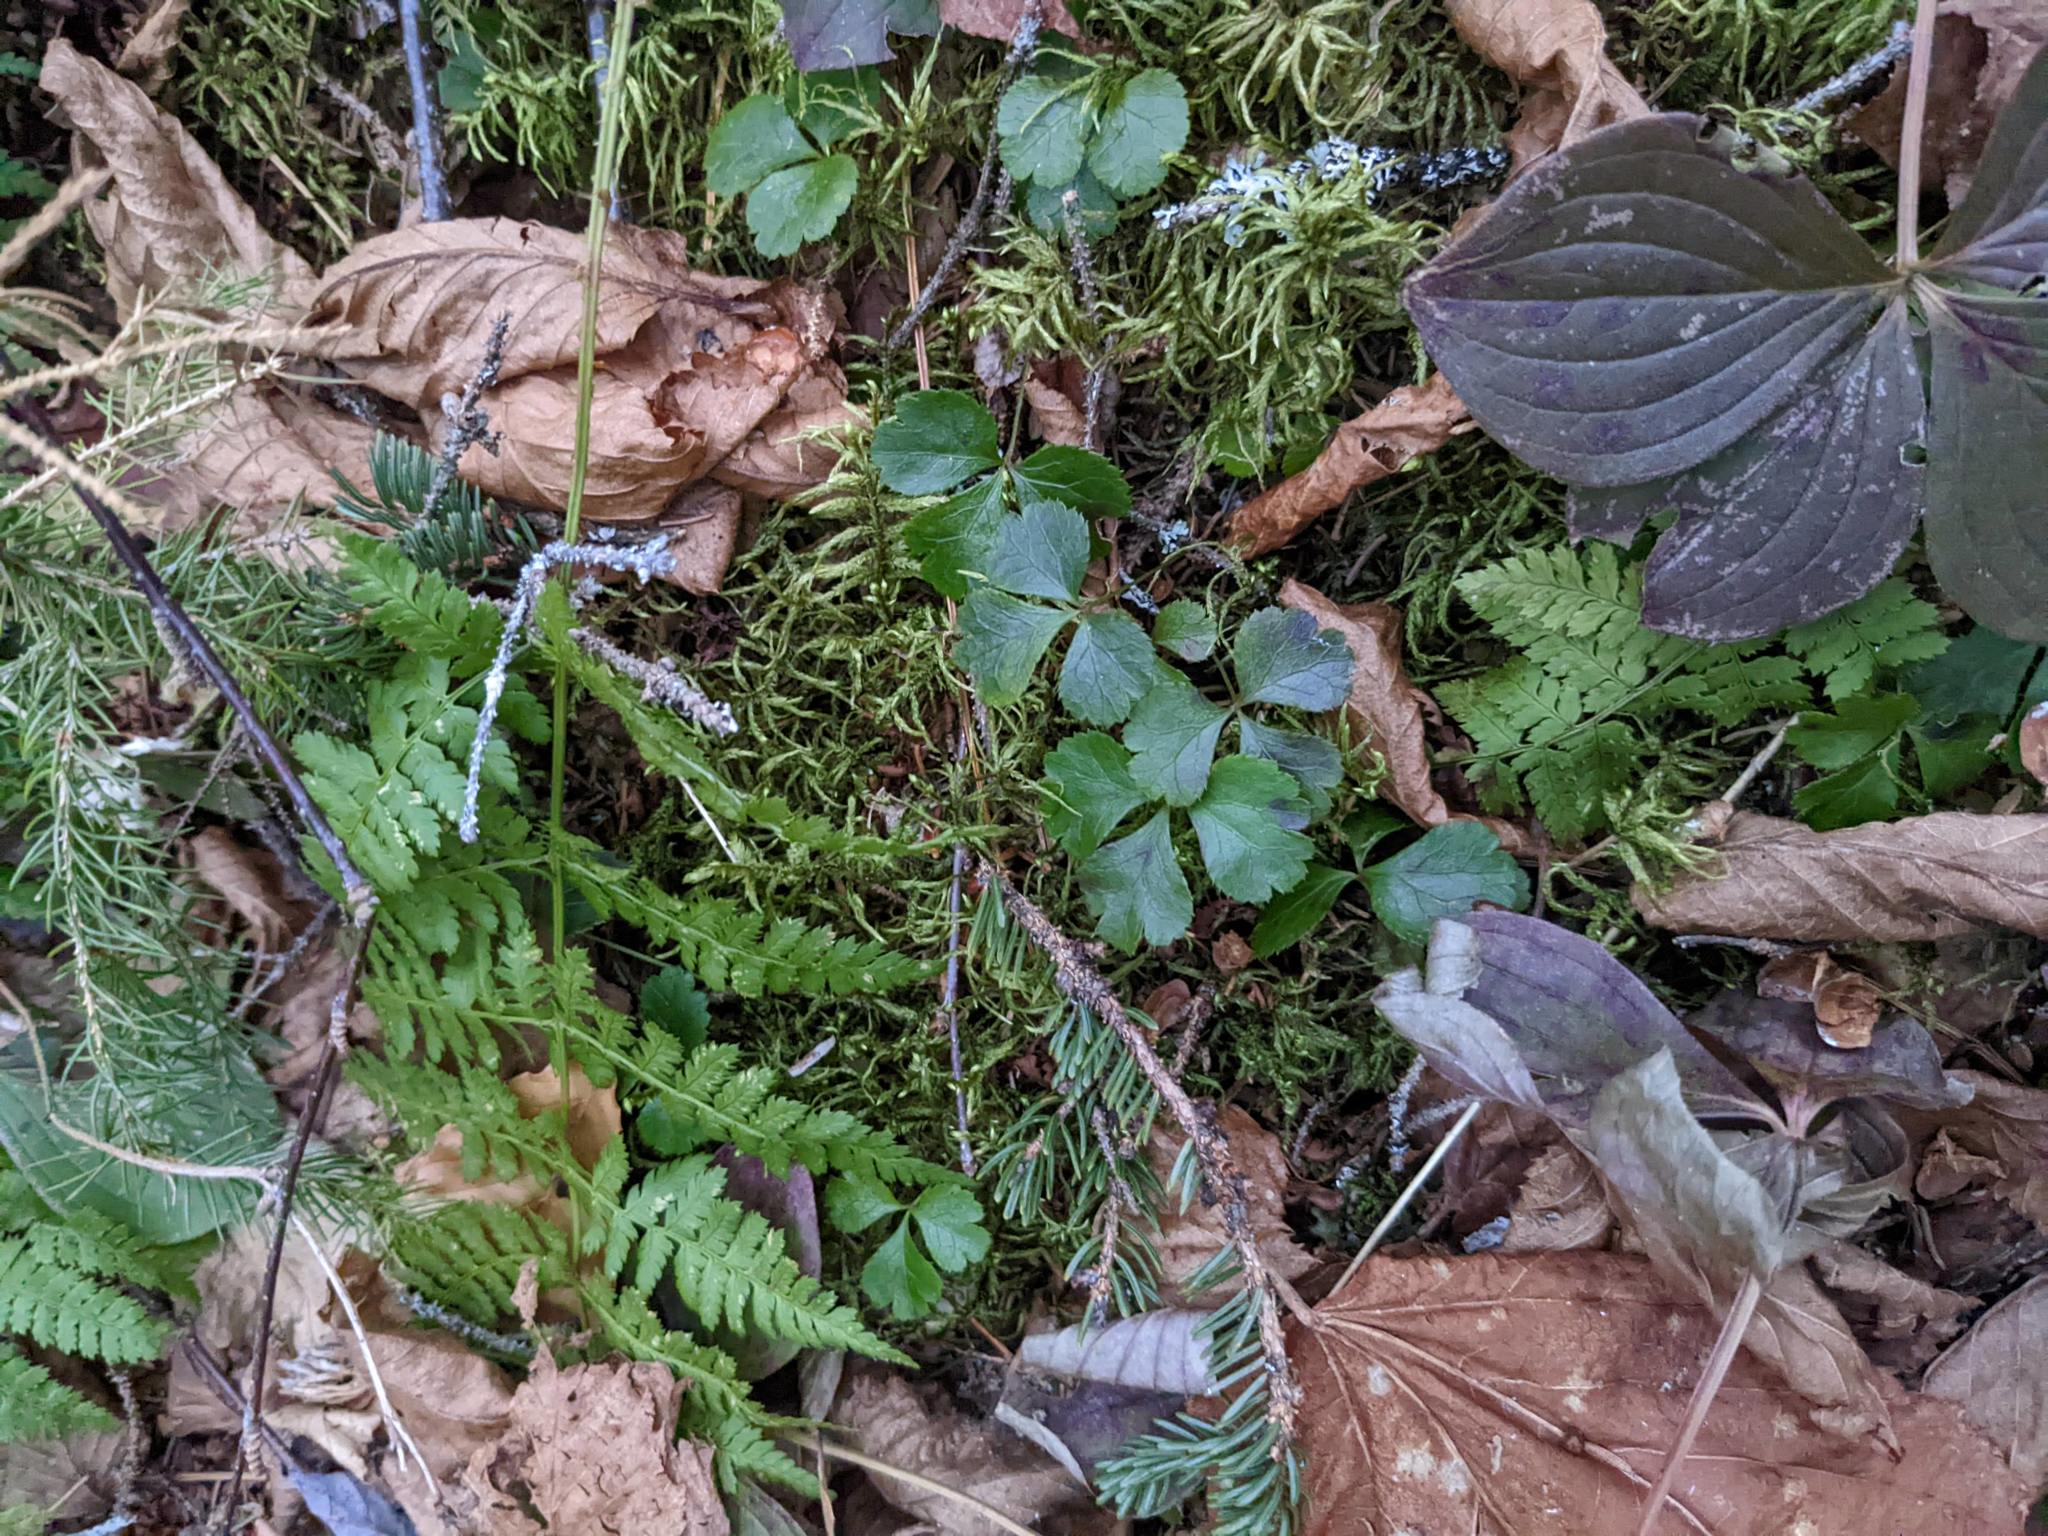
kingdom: Plantae
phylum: Tracheophyta
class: Polypodiopsida
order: Polypodiales
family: Dryopteridaceae
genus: Dryopteris
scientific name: Dryopteris intermedia
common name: Evergreen wood fern
